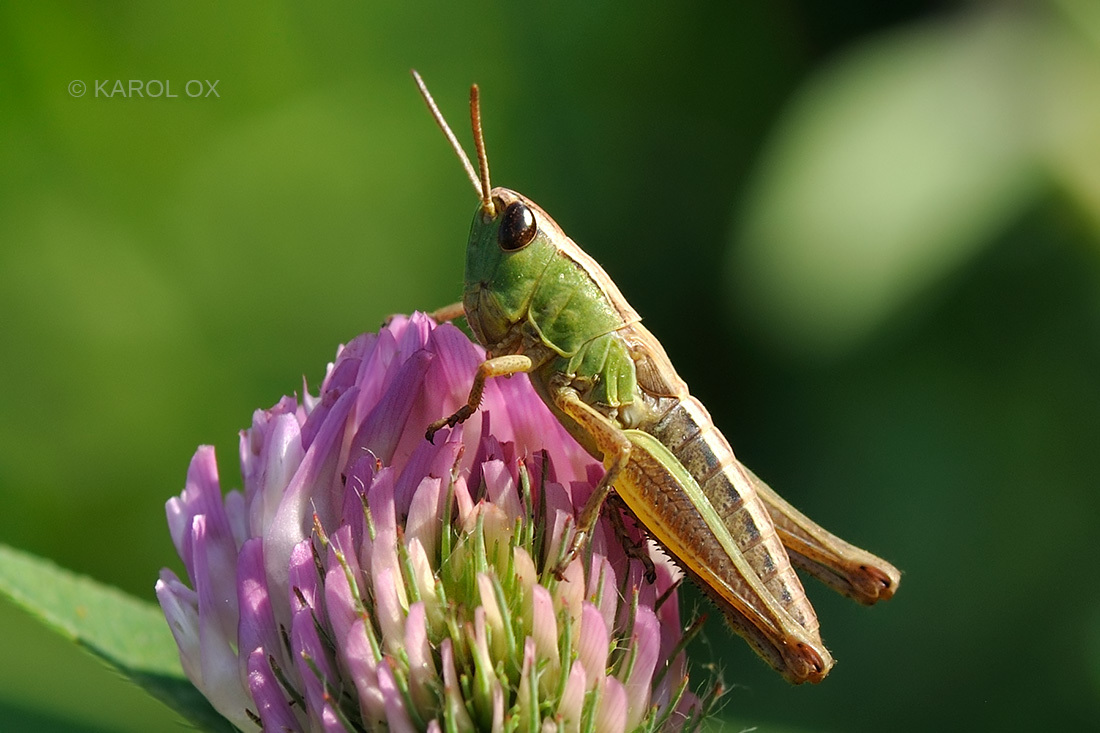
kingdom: Animalia
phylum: Arthropoda
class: Insecta
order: Orthoptera
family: Acrididae
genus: Pseudochorthippus
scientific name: Pseudochorthippus parallelus
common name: Meadow grasshopper
